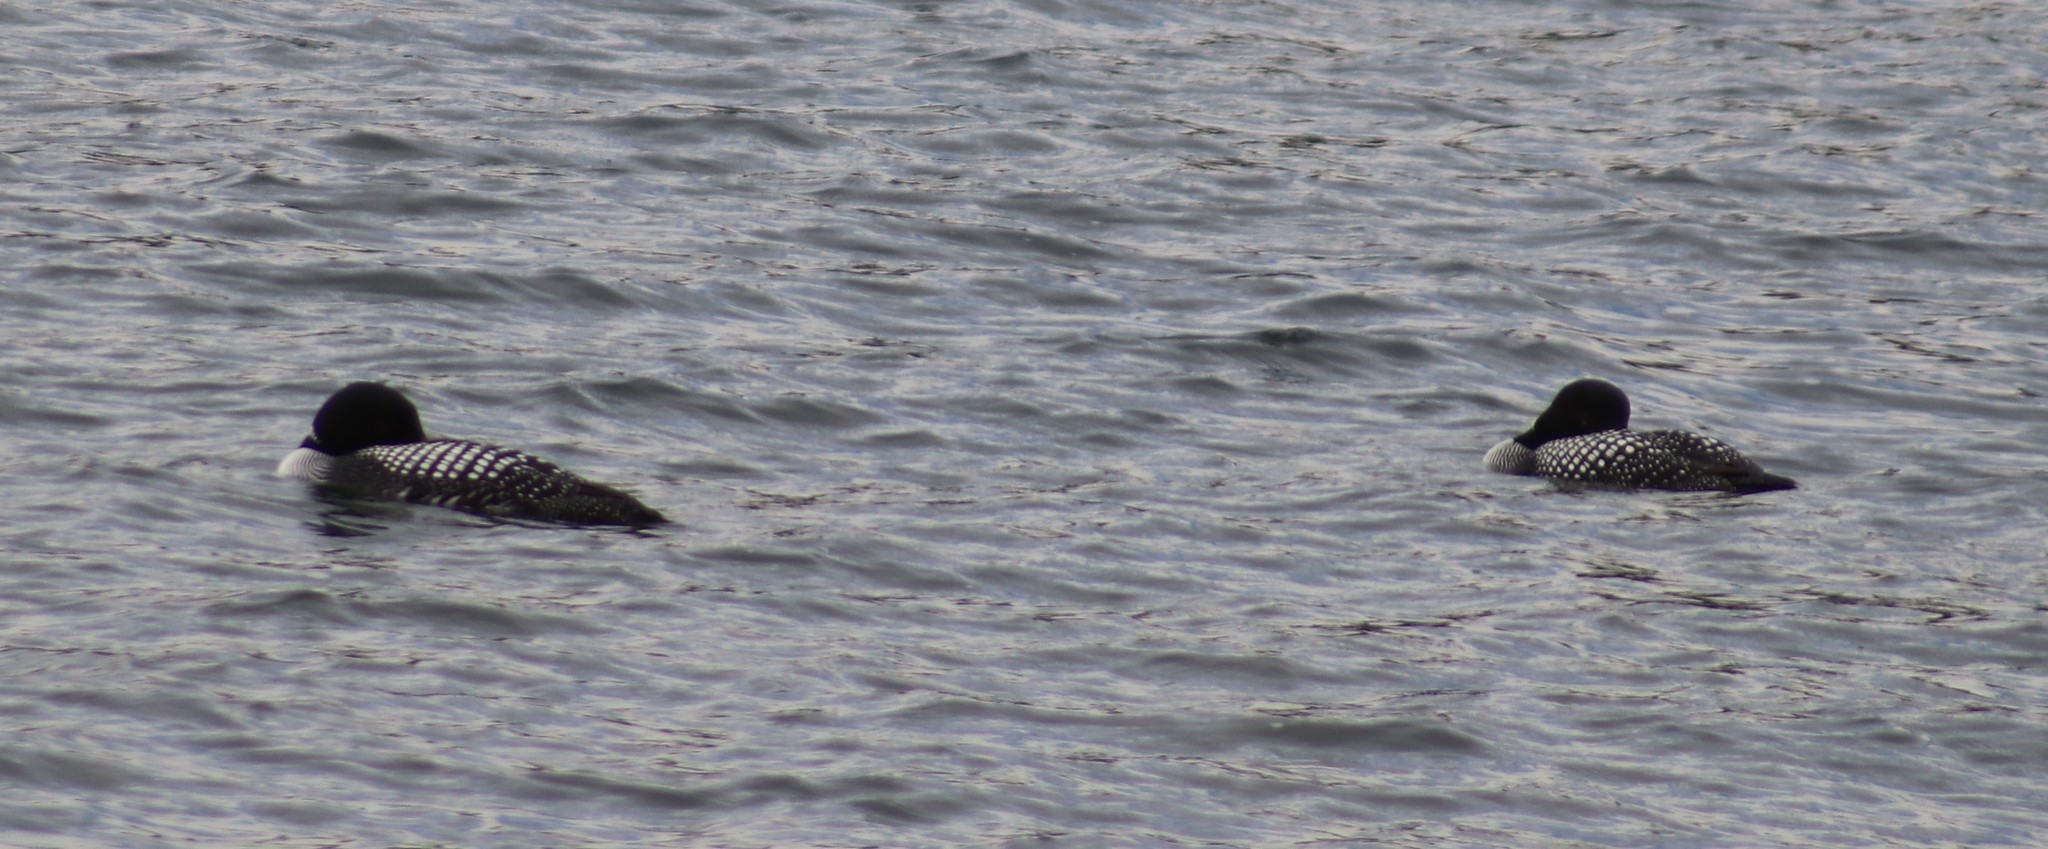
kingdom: Animalia
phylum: Chordata
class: Aves
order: Gaviiformes
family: Gaviidae
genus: Gavia
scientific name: Gavia immer
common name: Common loon
